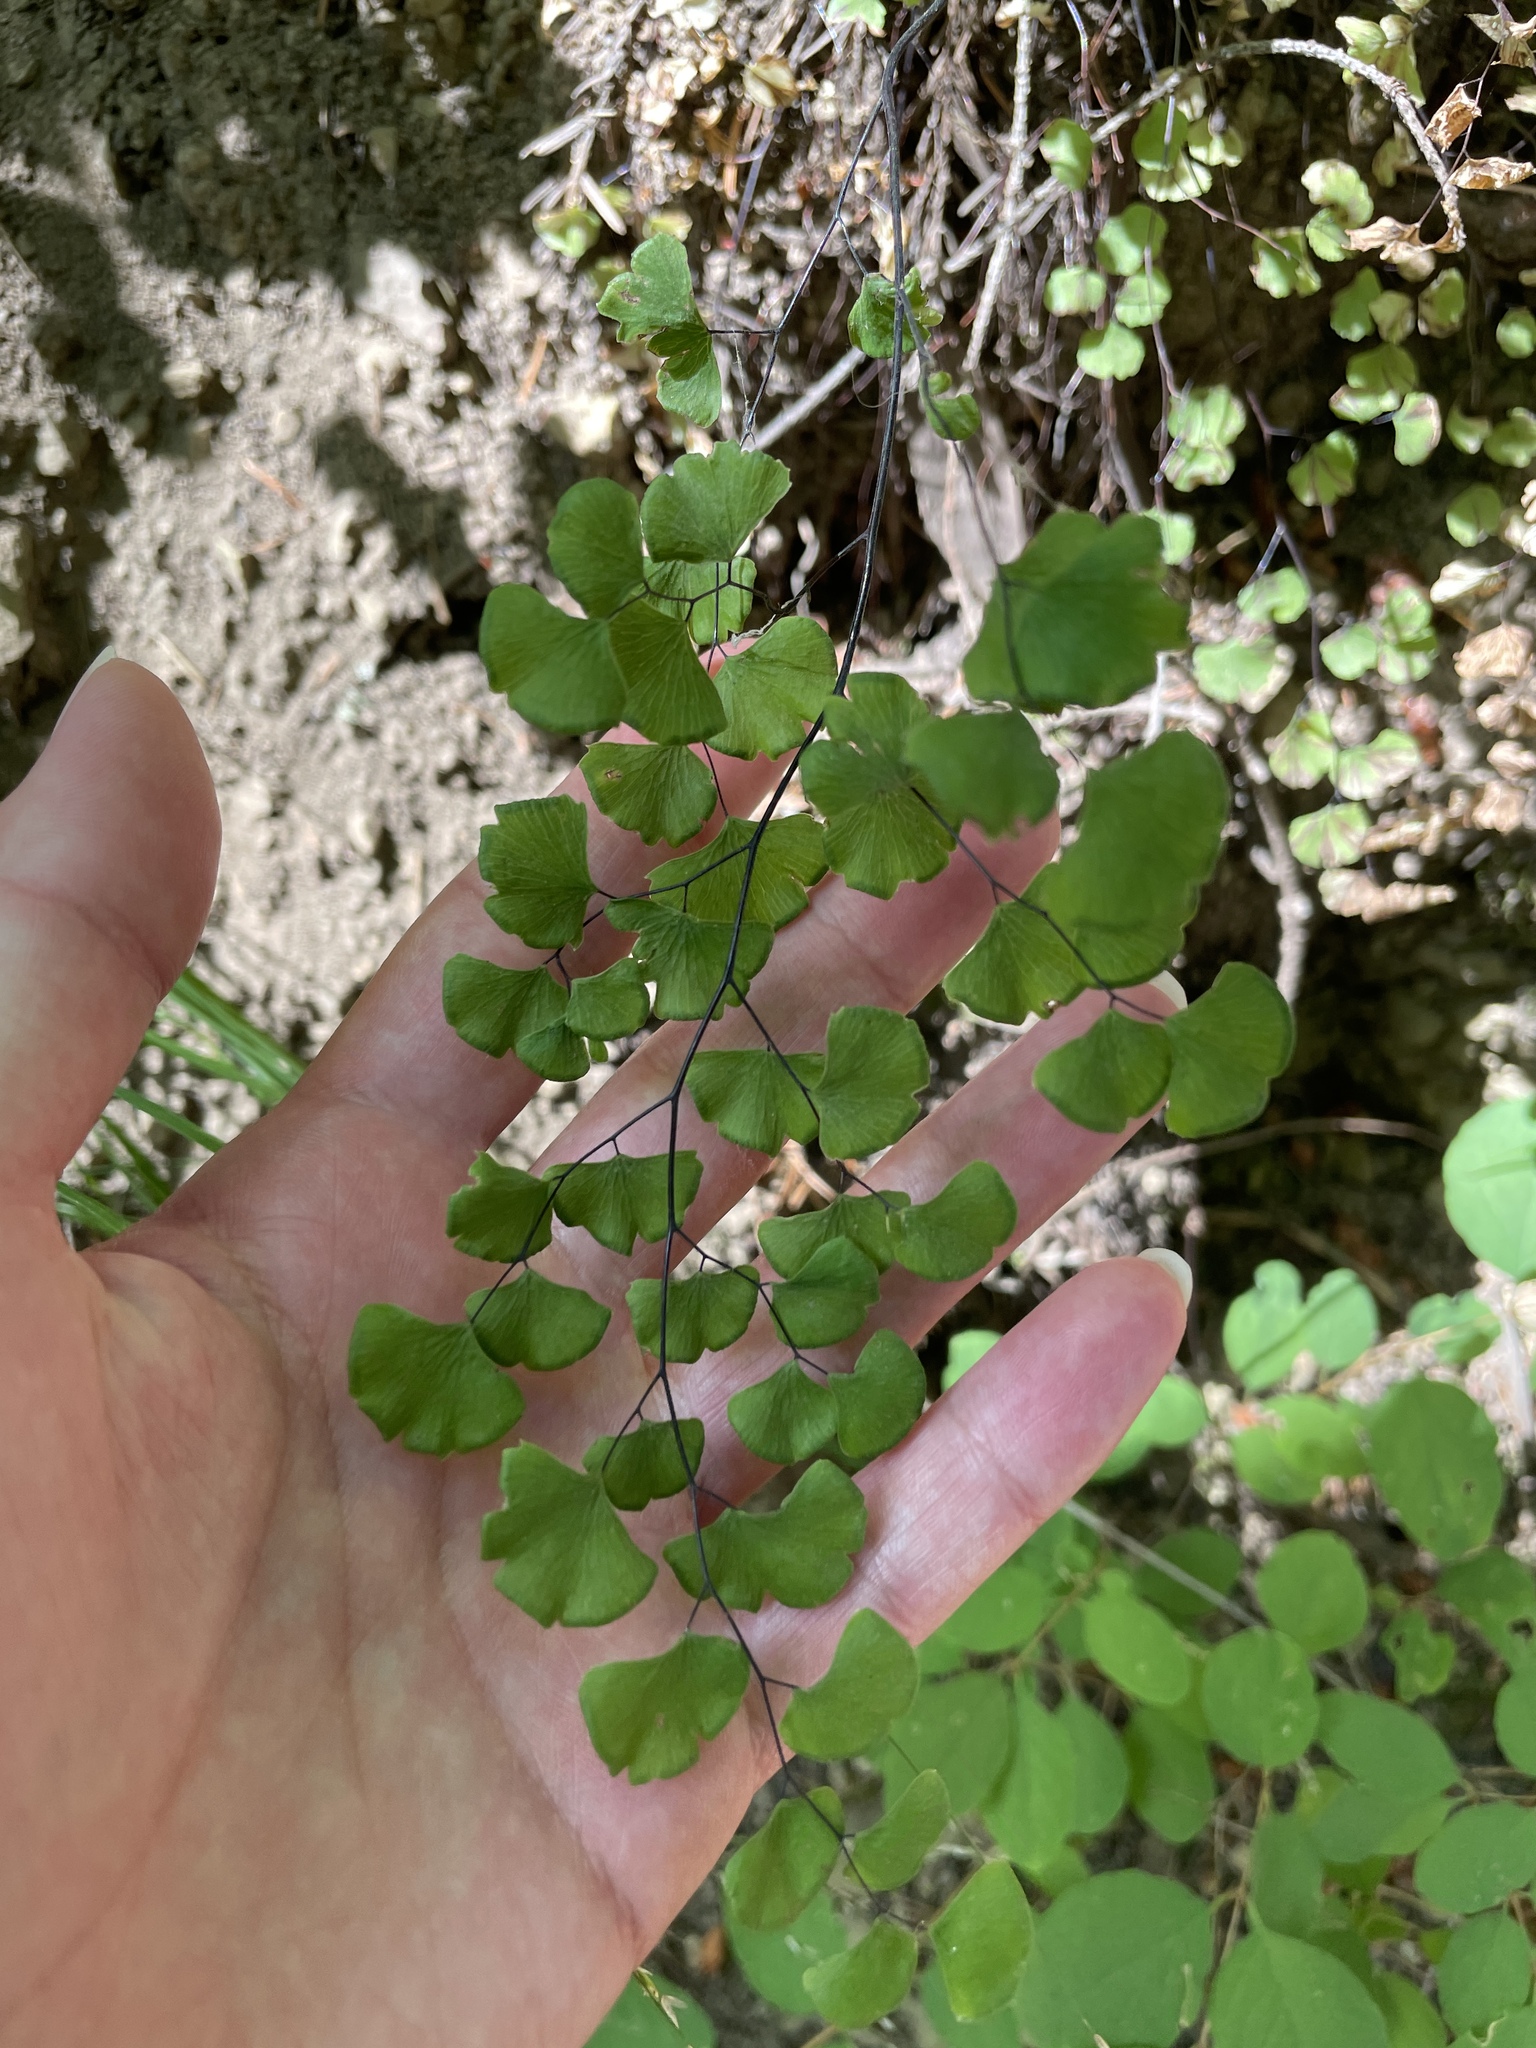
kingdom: Plantae
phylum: Tracheophyta
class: Polypodiopsida
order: Polypodiales
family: Pteridaceae
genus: Adiantum
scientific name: Adiantum jordanii
